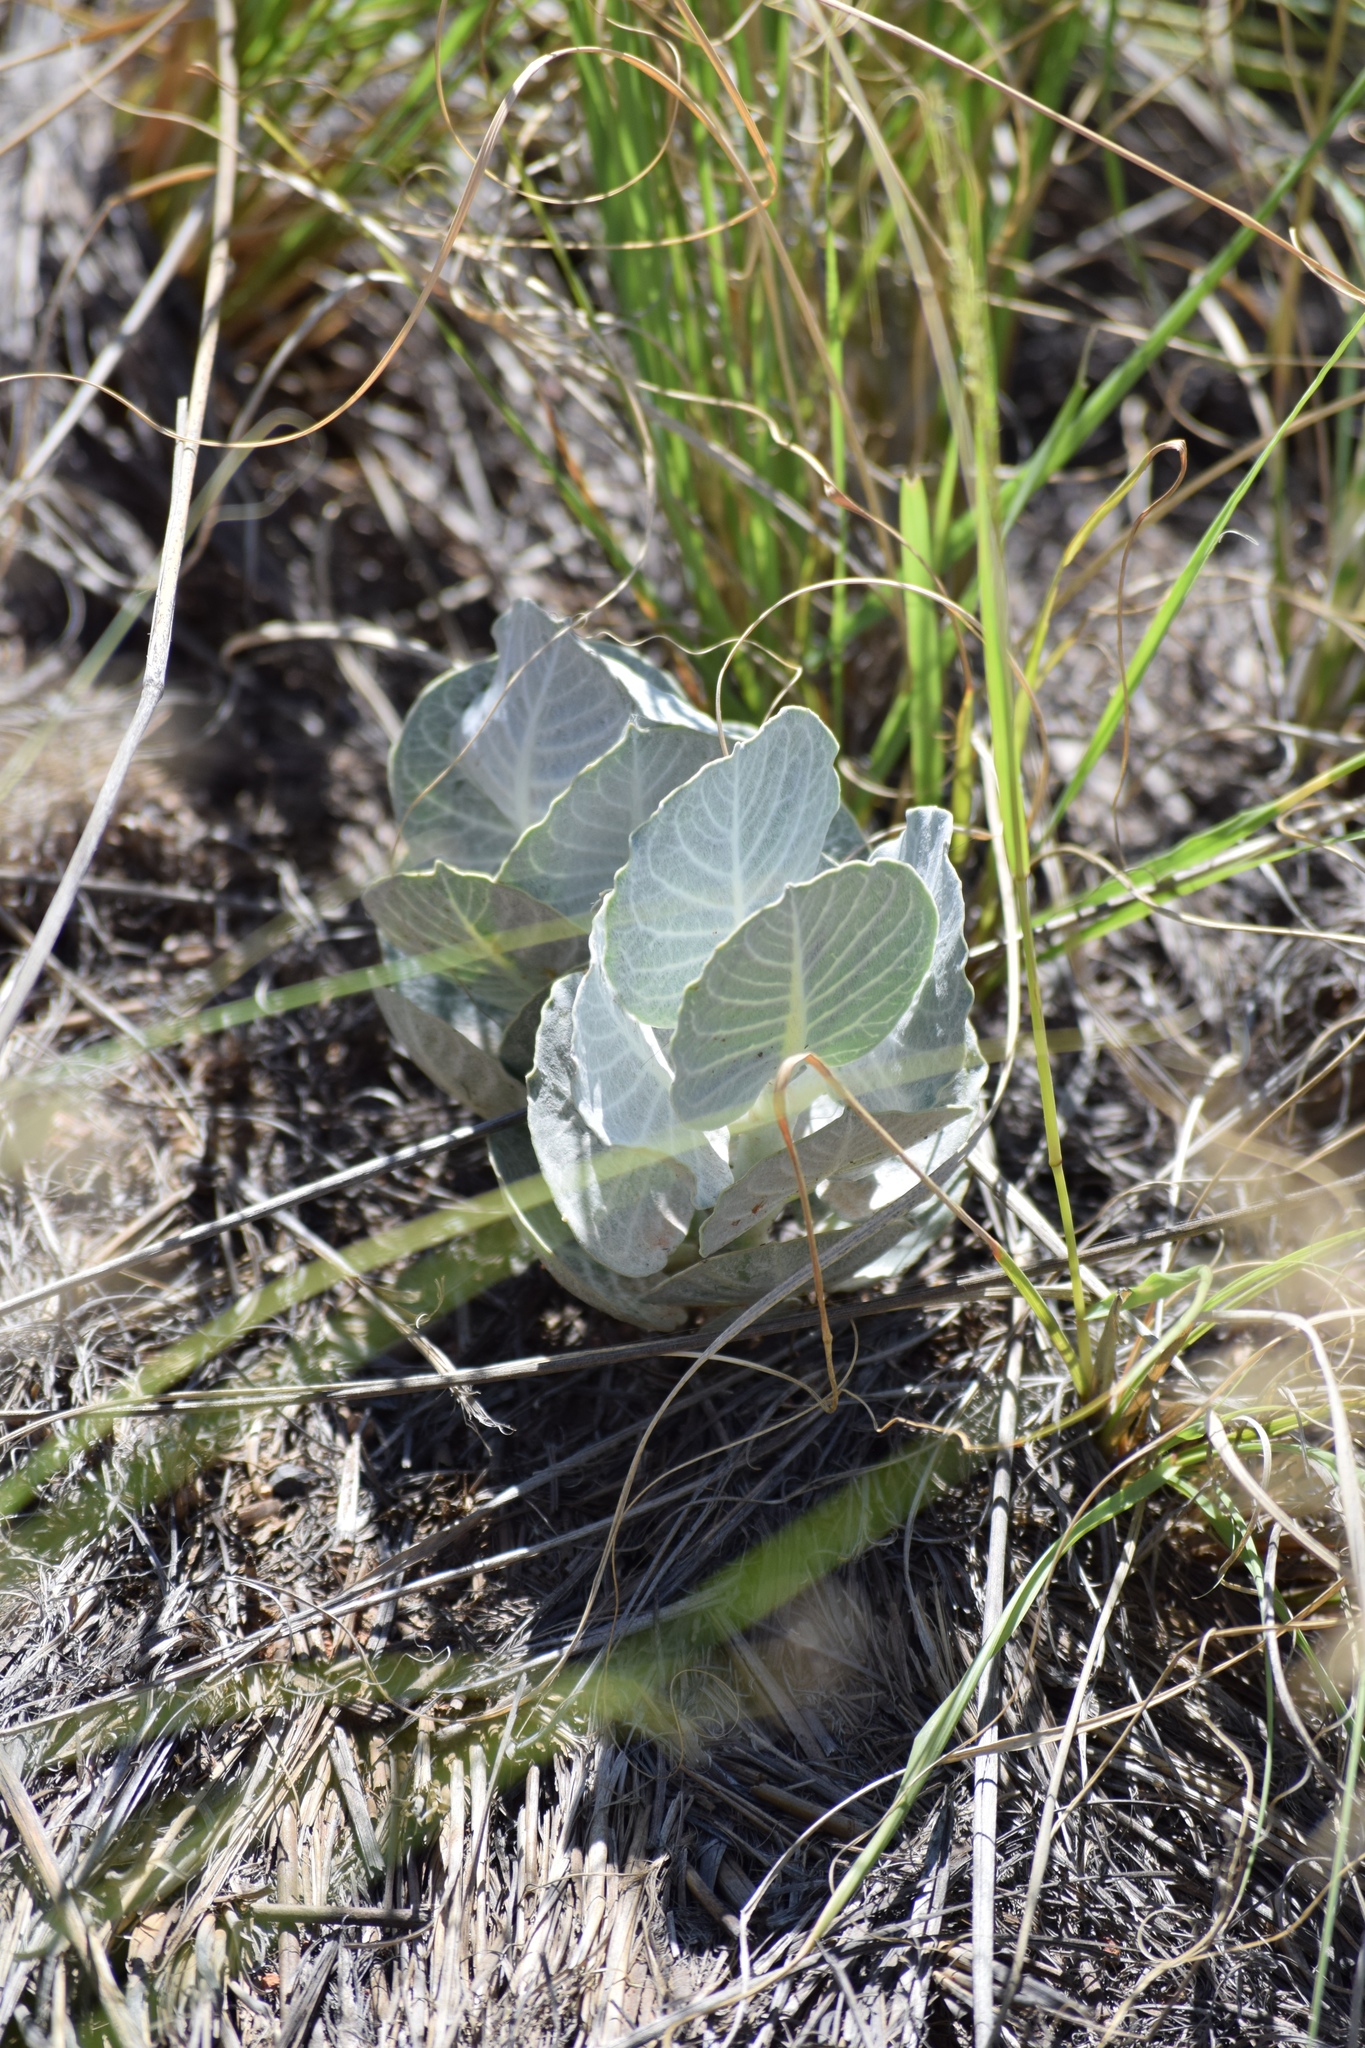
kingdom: Plantae
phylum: Tracheophyta
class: Magnoliopsida
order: Gentianales
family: Apocynaceae
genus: Asclepias
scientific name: Asclepias nummularia
